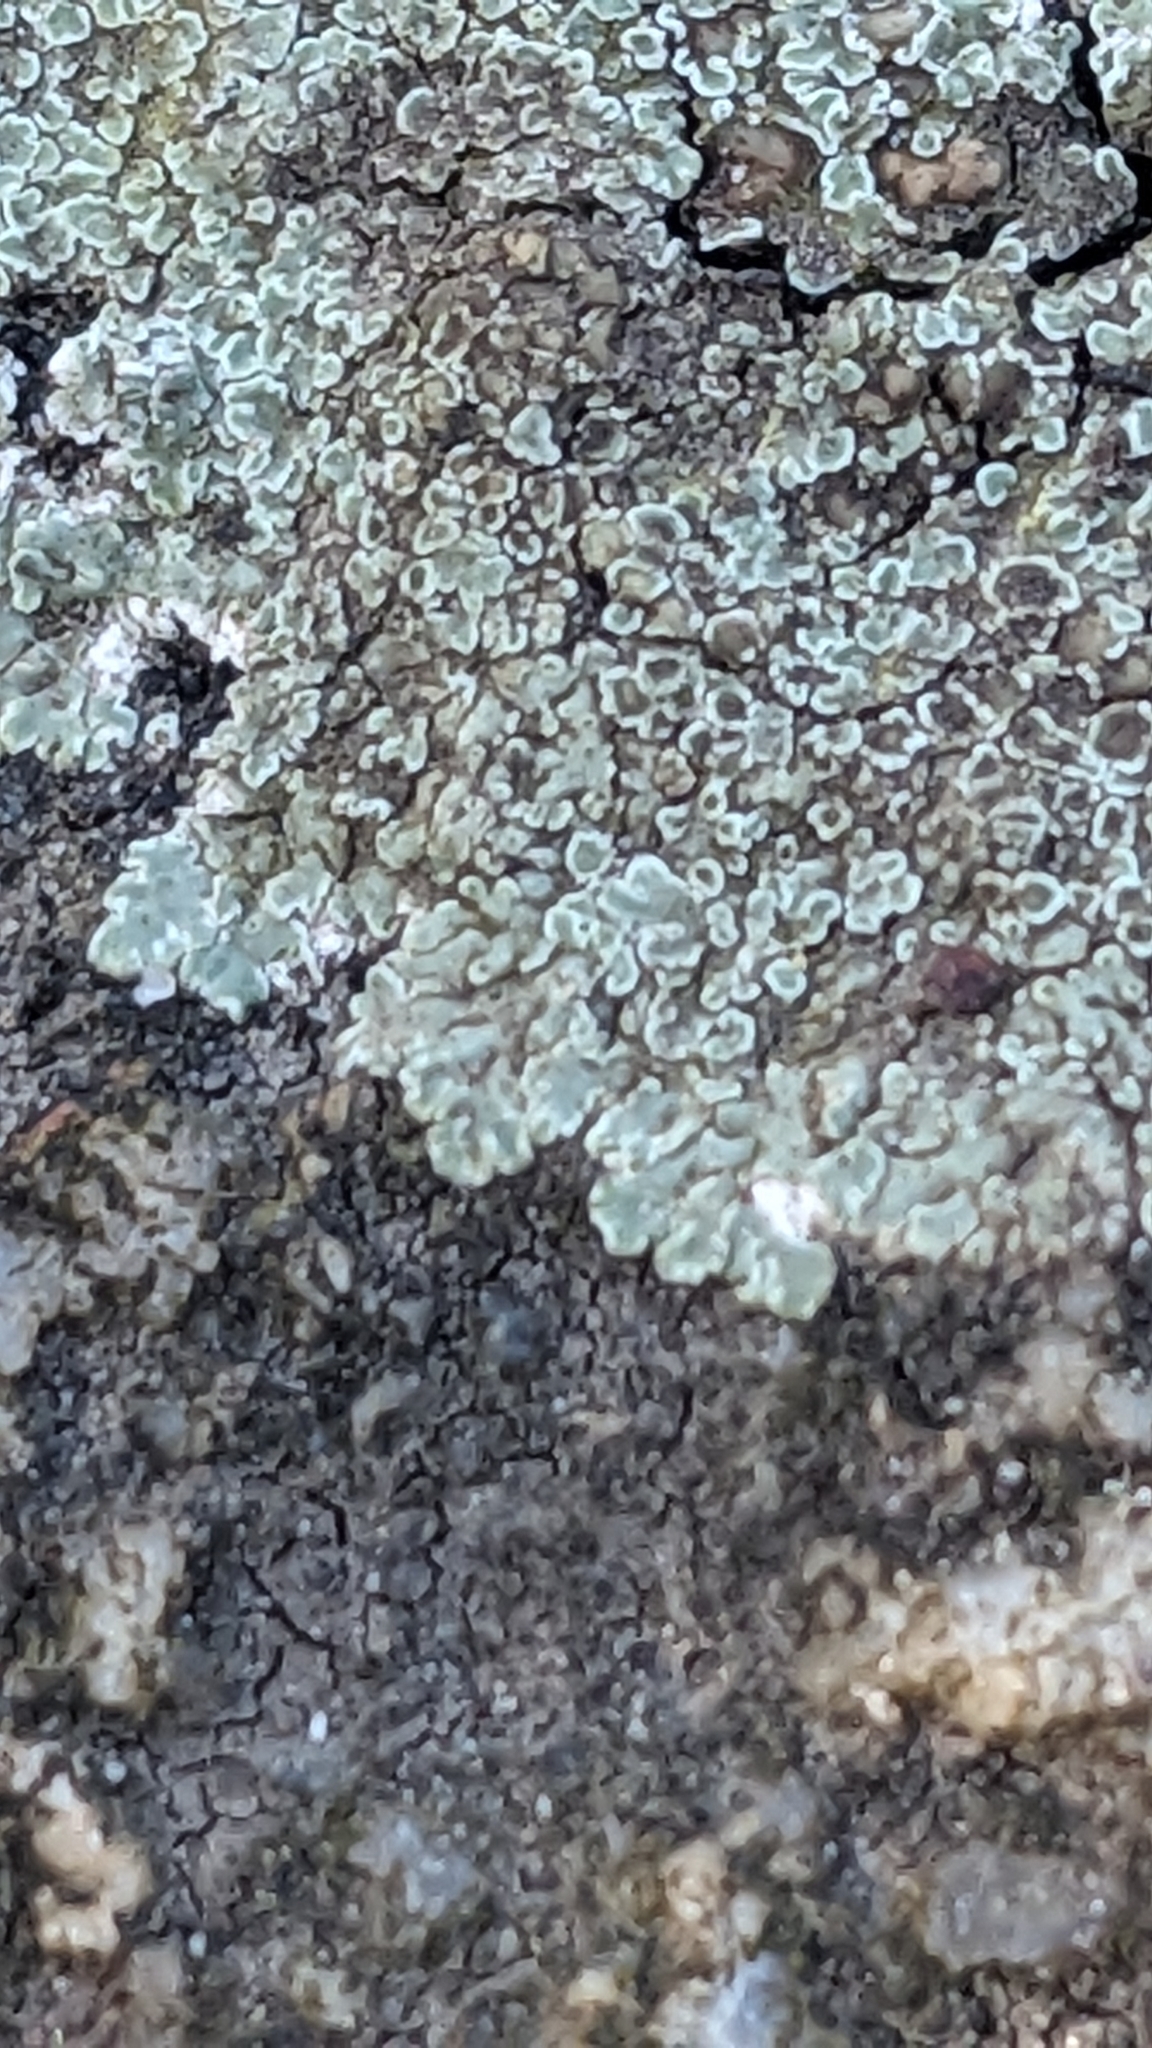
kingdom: Fungi
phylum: Ascomycota
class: Lecanoromycetes
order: Lecanorales
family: Lecanoraceae
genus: Protoparmeliopsis
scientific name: Protoparmeliopsis muralis
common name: Stonewall rim lichen
